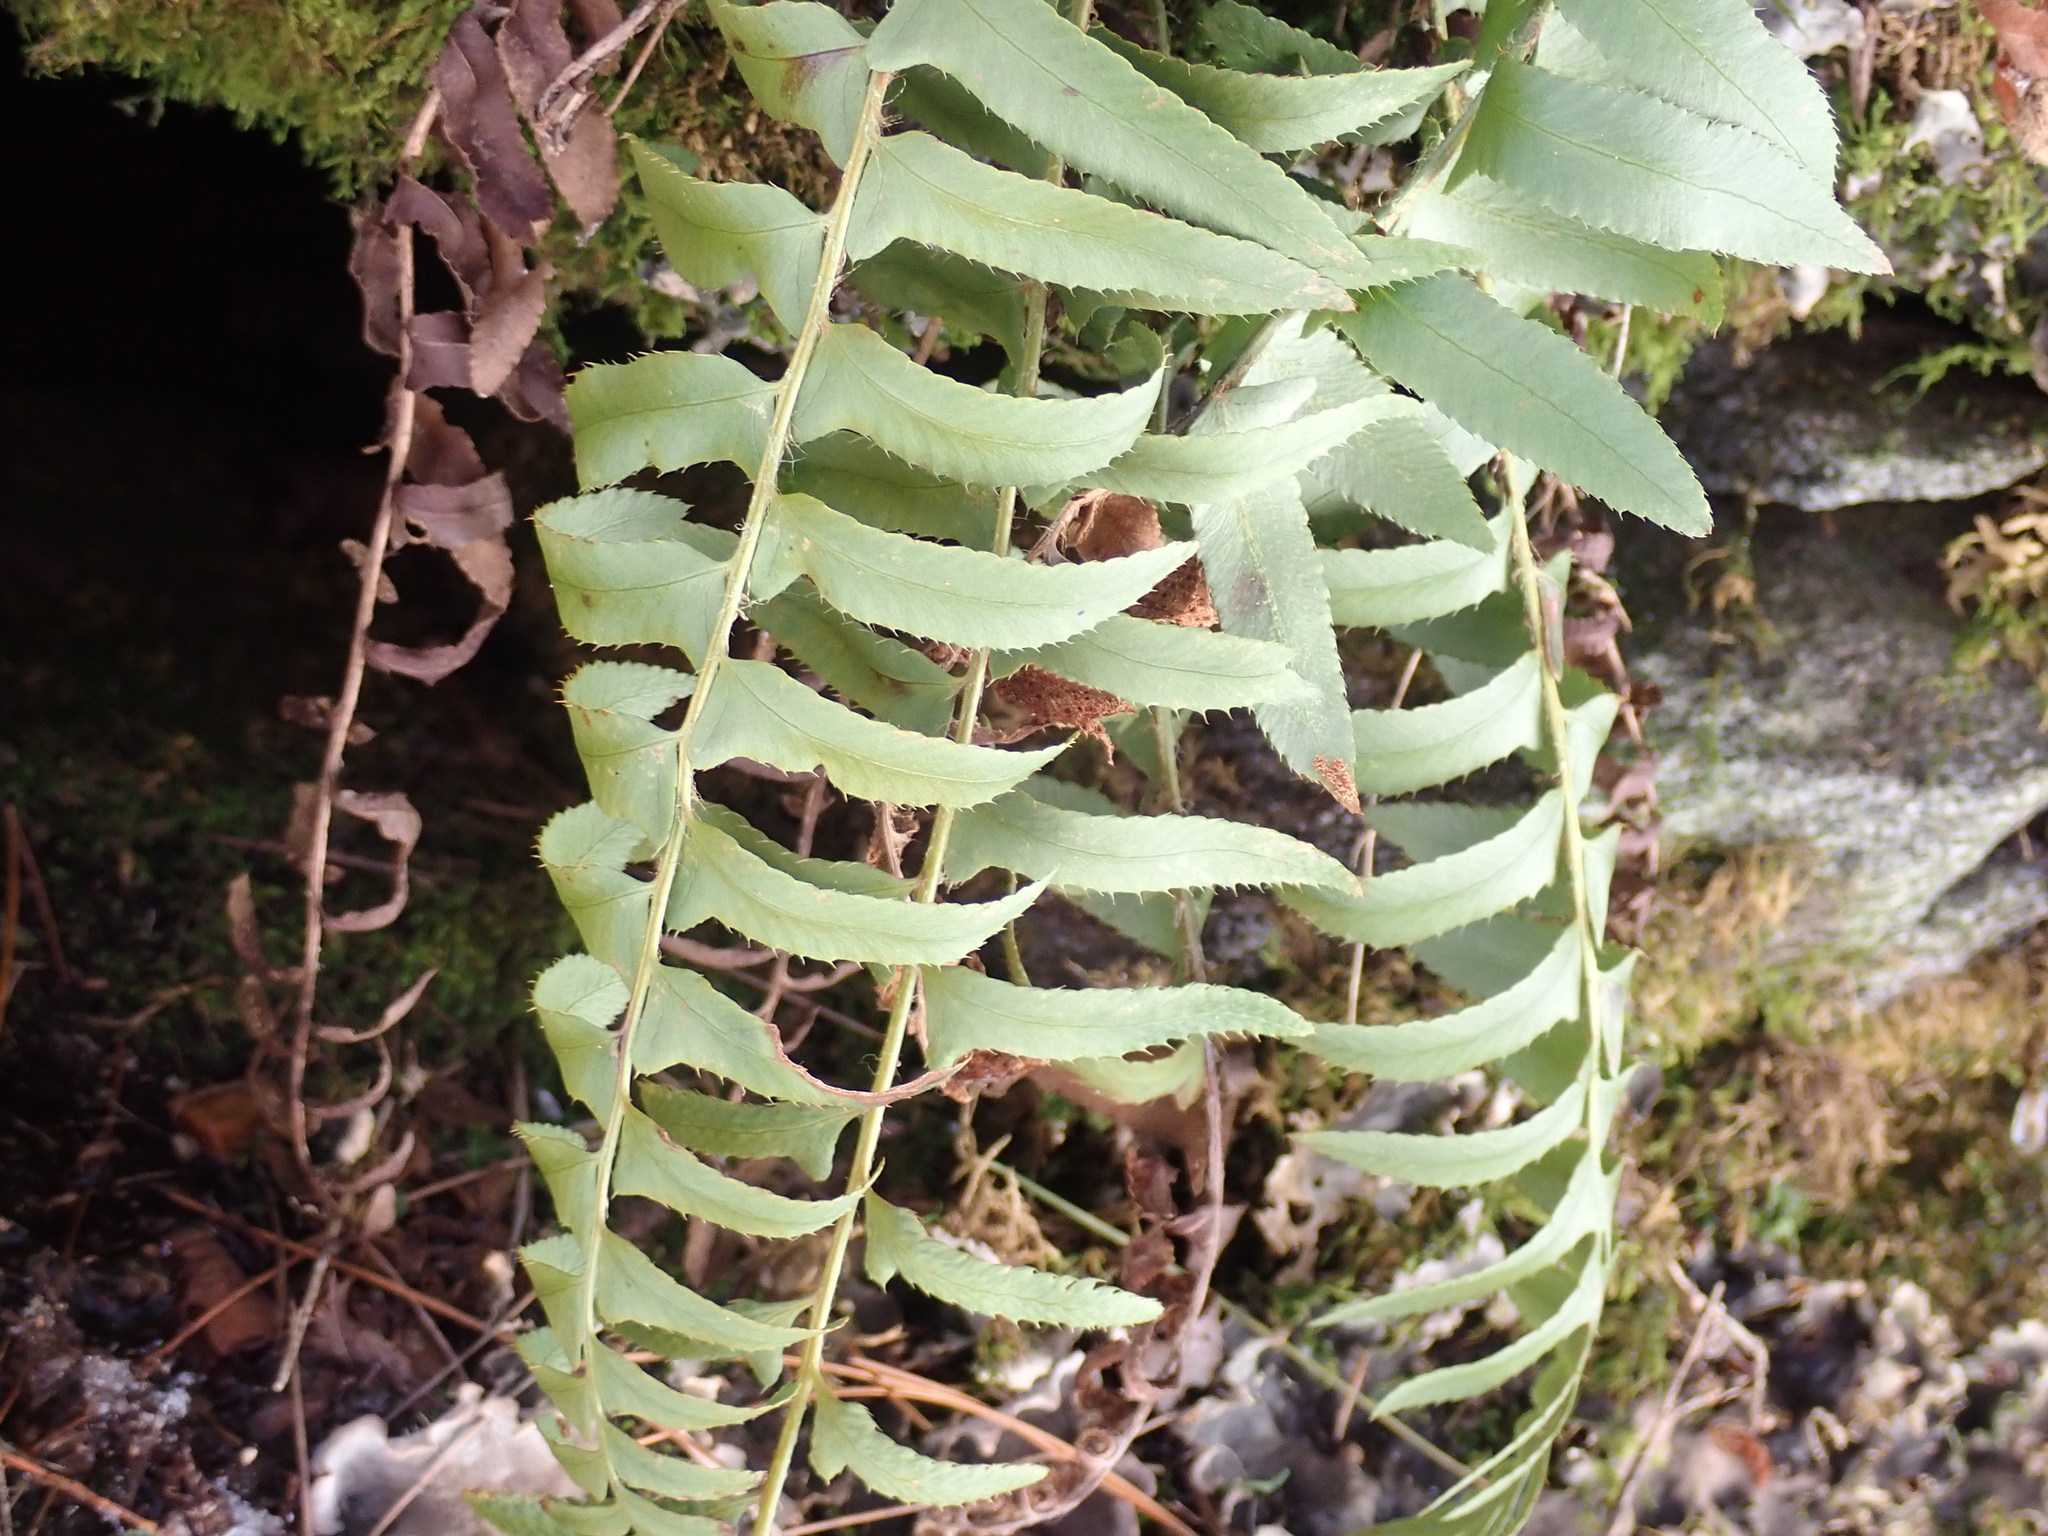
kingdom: Plantae
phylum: Tracheophyta
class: Polypodiopsida
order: Polypodiales
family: Dryopteridaceae
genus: Polystichum
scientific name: Polystichum acrostichoides
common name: Christmas fern
